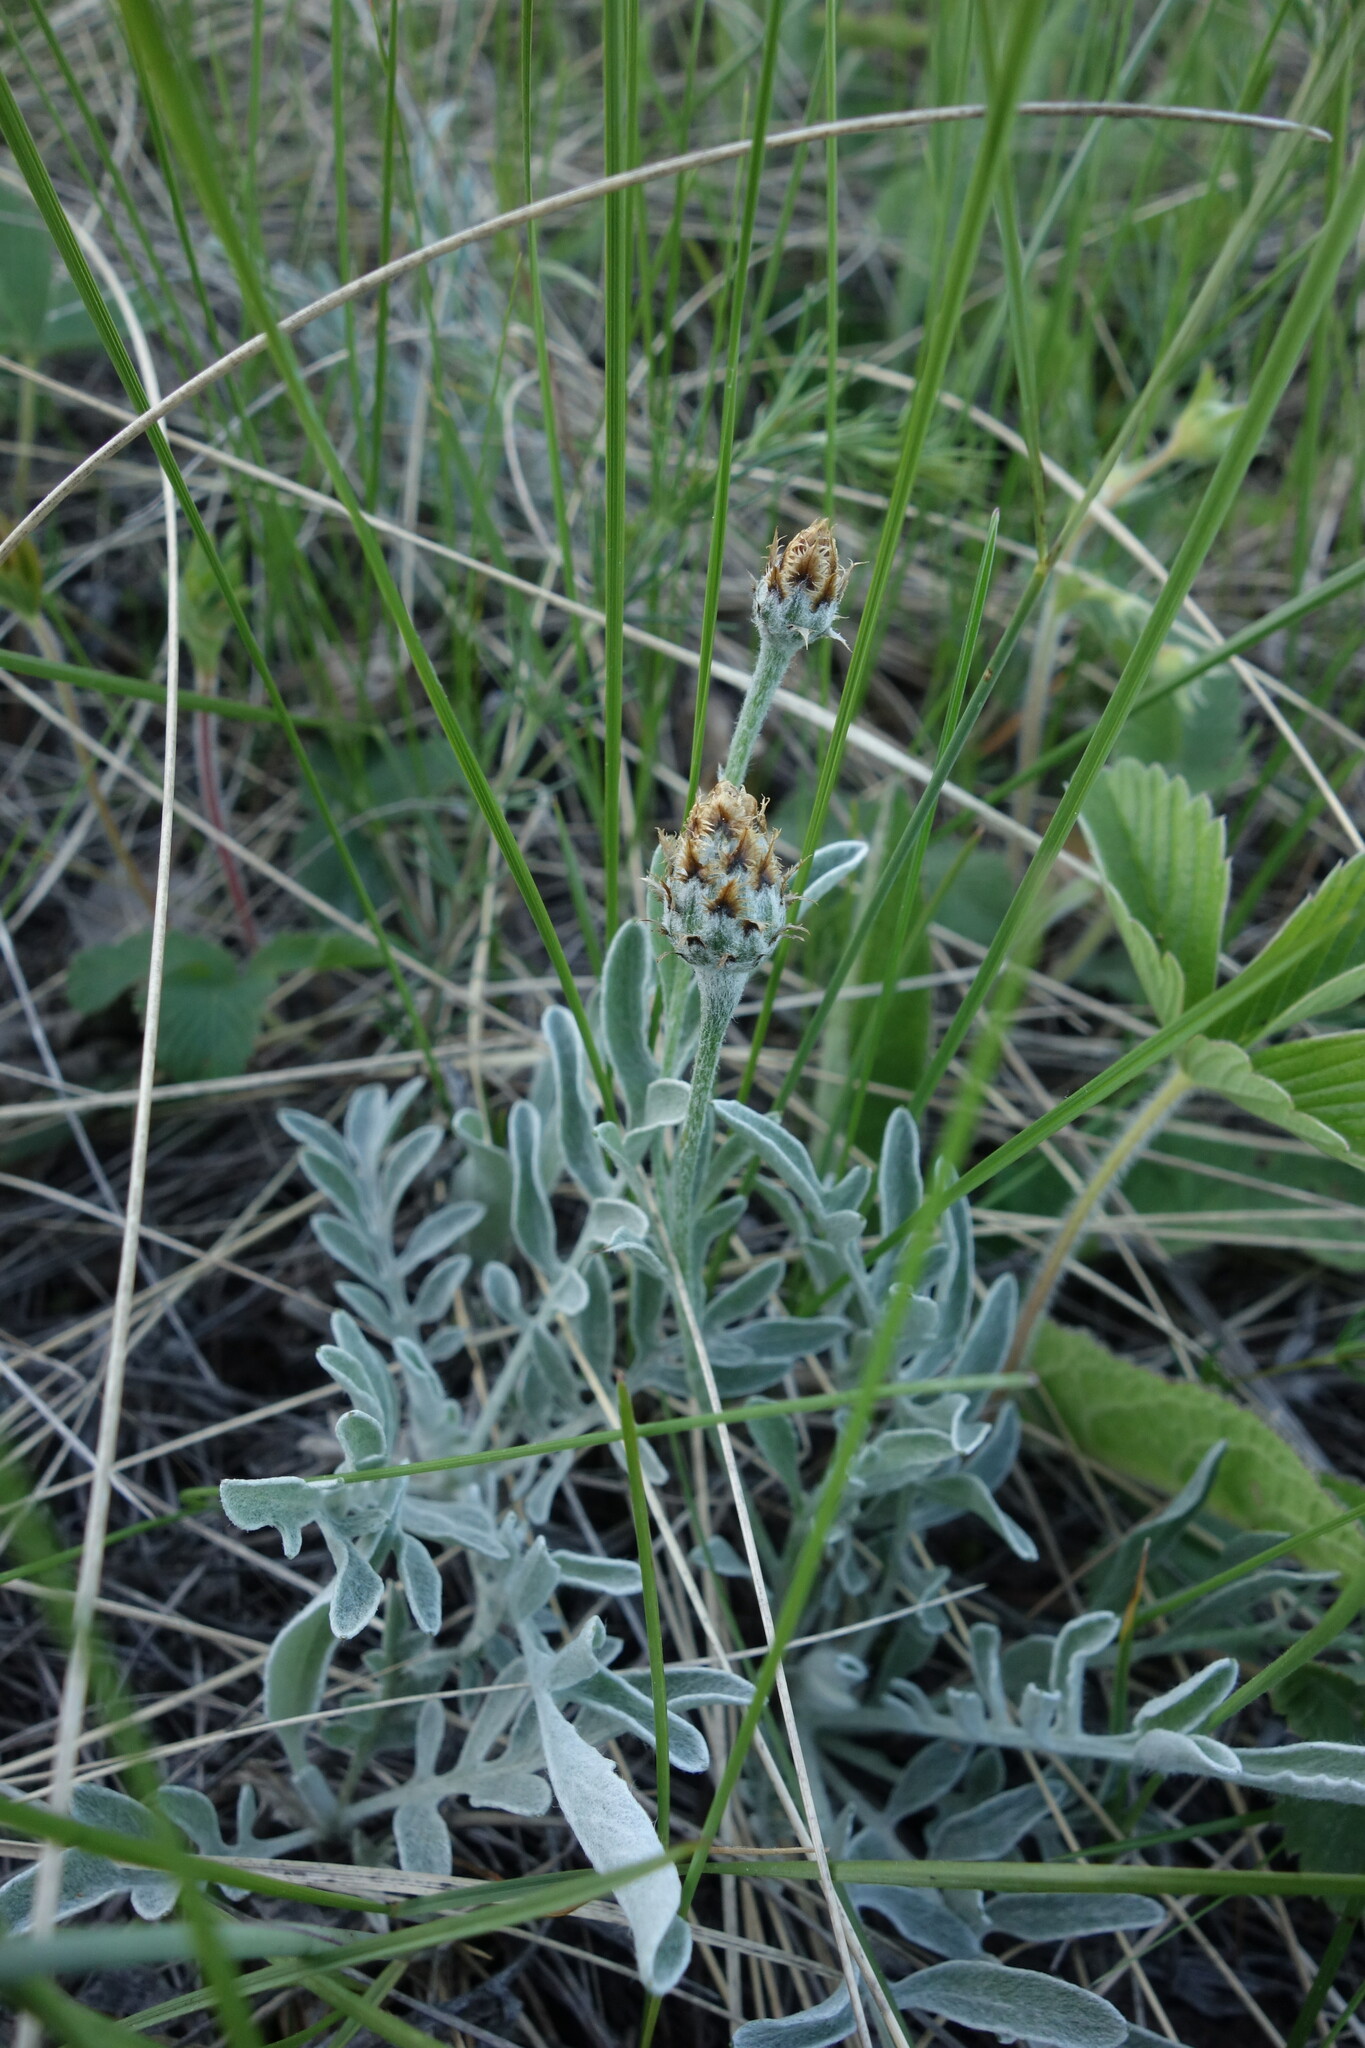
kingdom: Plantae
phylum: Tracheophyta
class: Magnoliopsida
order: Asterales
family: Asteraceae
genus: Psephellus
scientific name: Psephellus marschallianus
